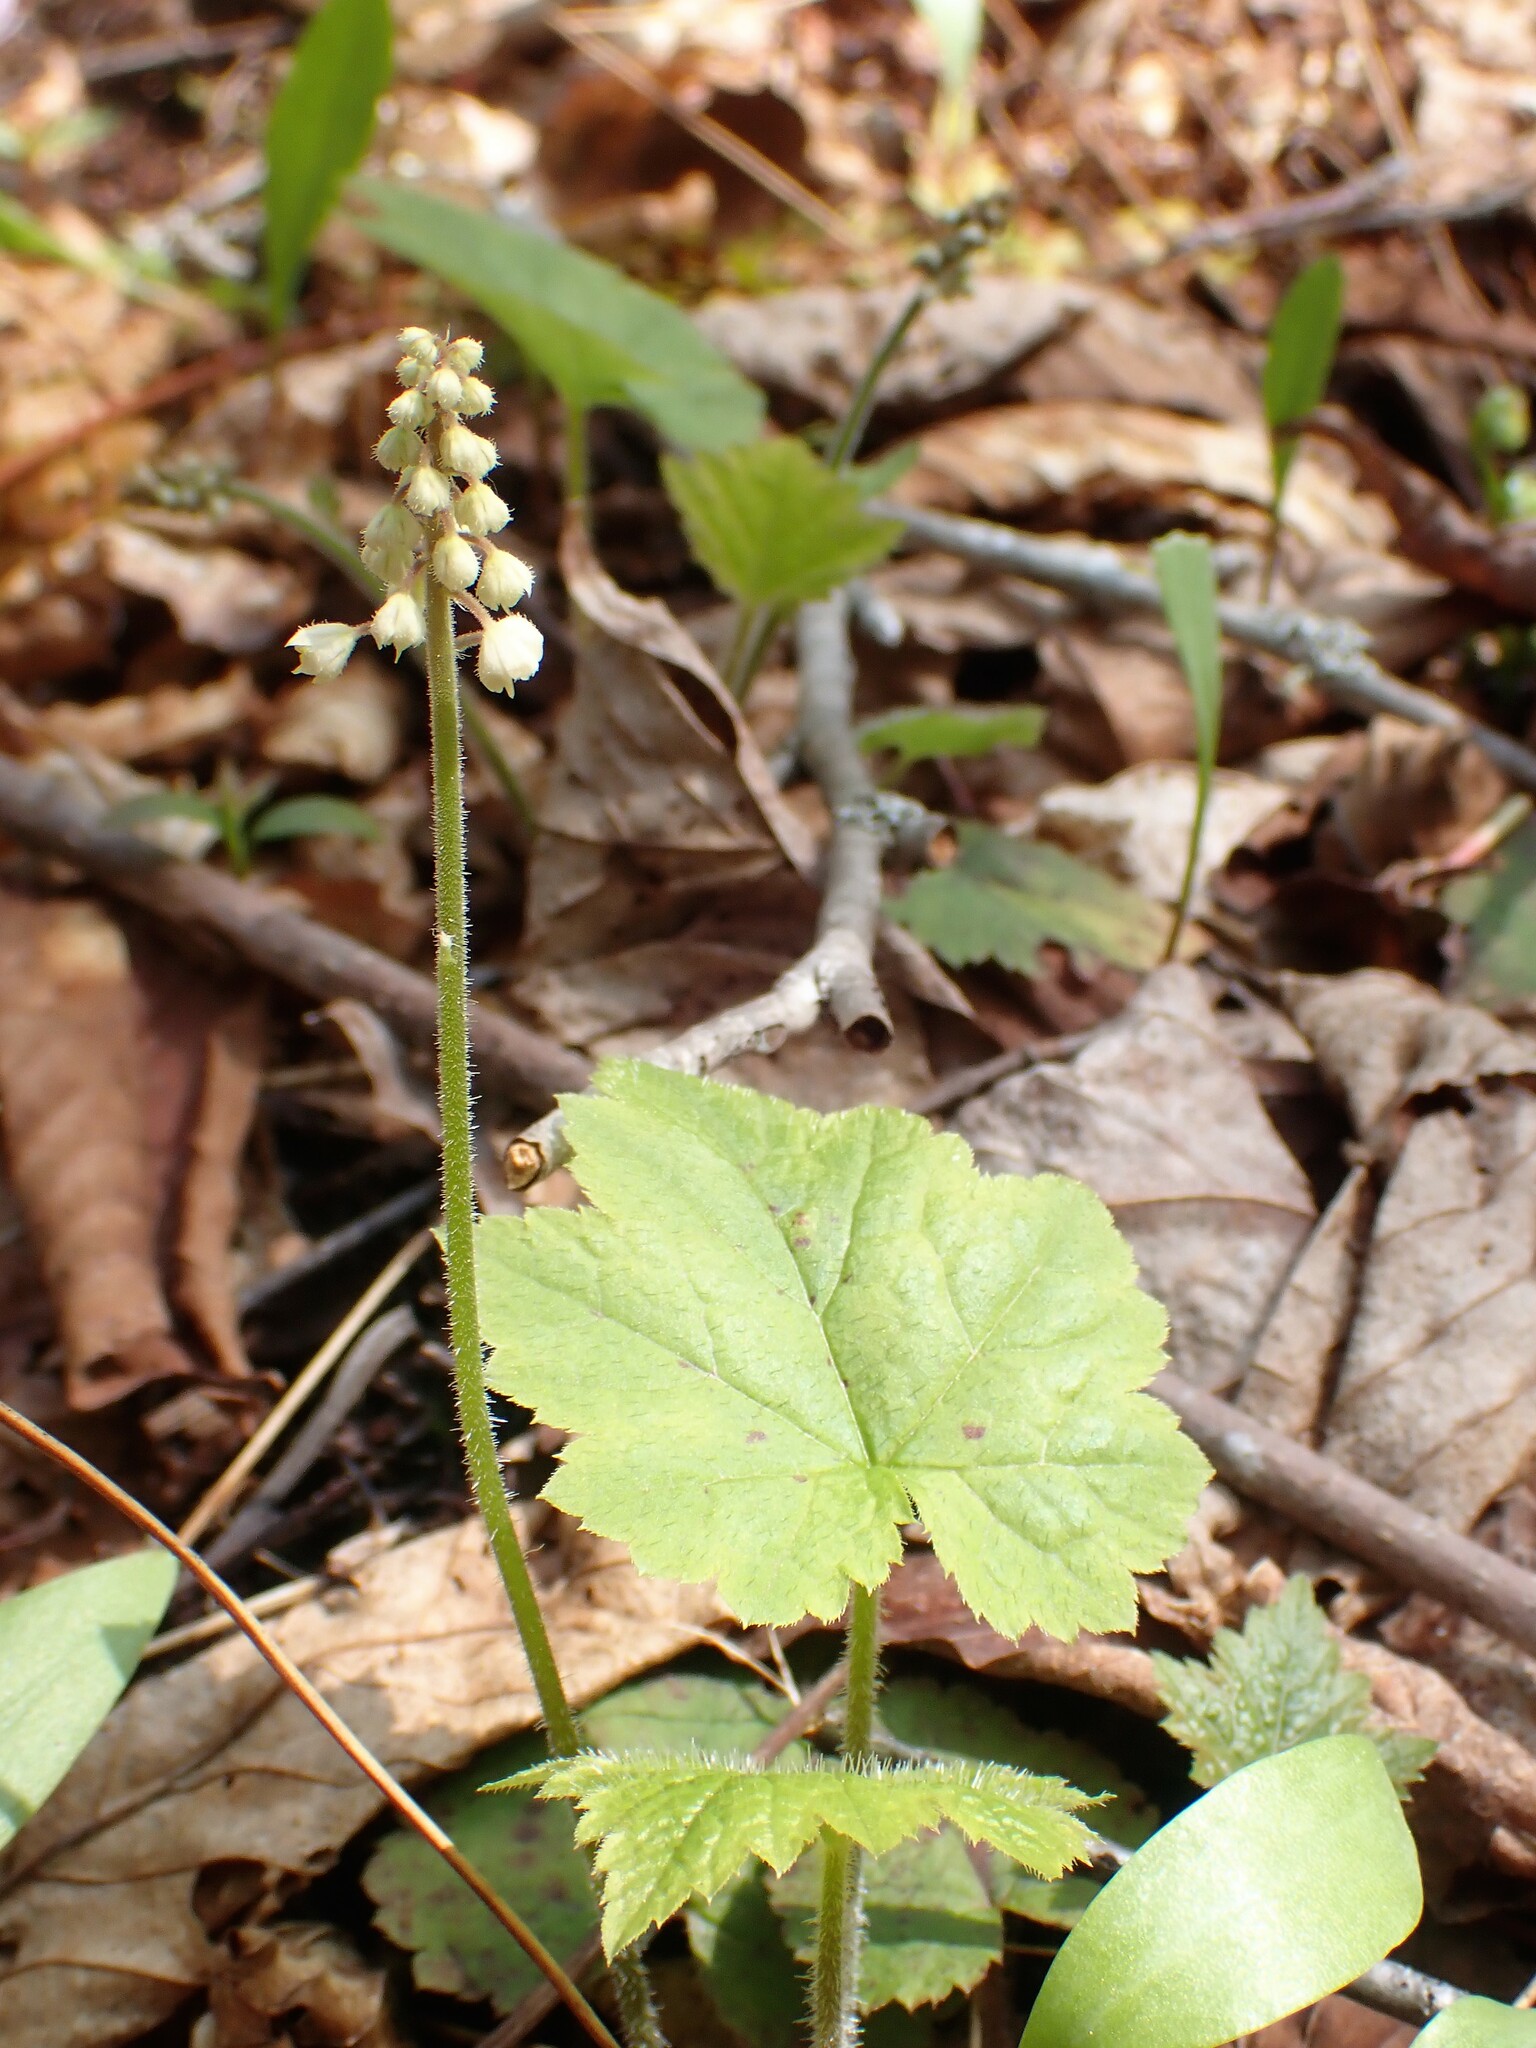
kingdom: Plantae
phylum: Tracheophyta
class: Magnoliopsida
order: Saxifragales
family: Saxifragaceae
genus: Tiarella
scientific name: Tiarella stolonifera
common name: Stoloniferous foamflower
